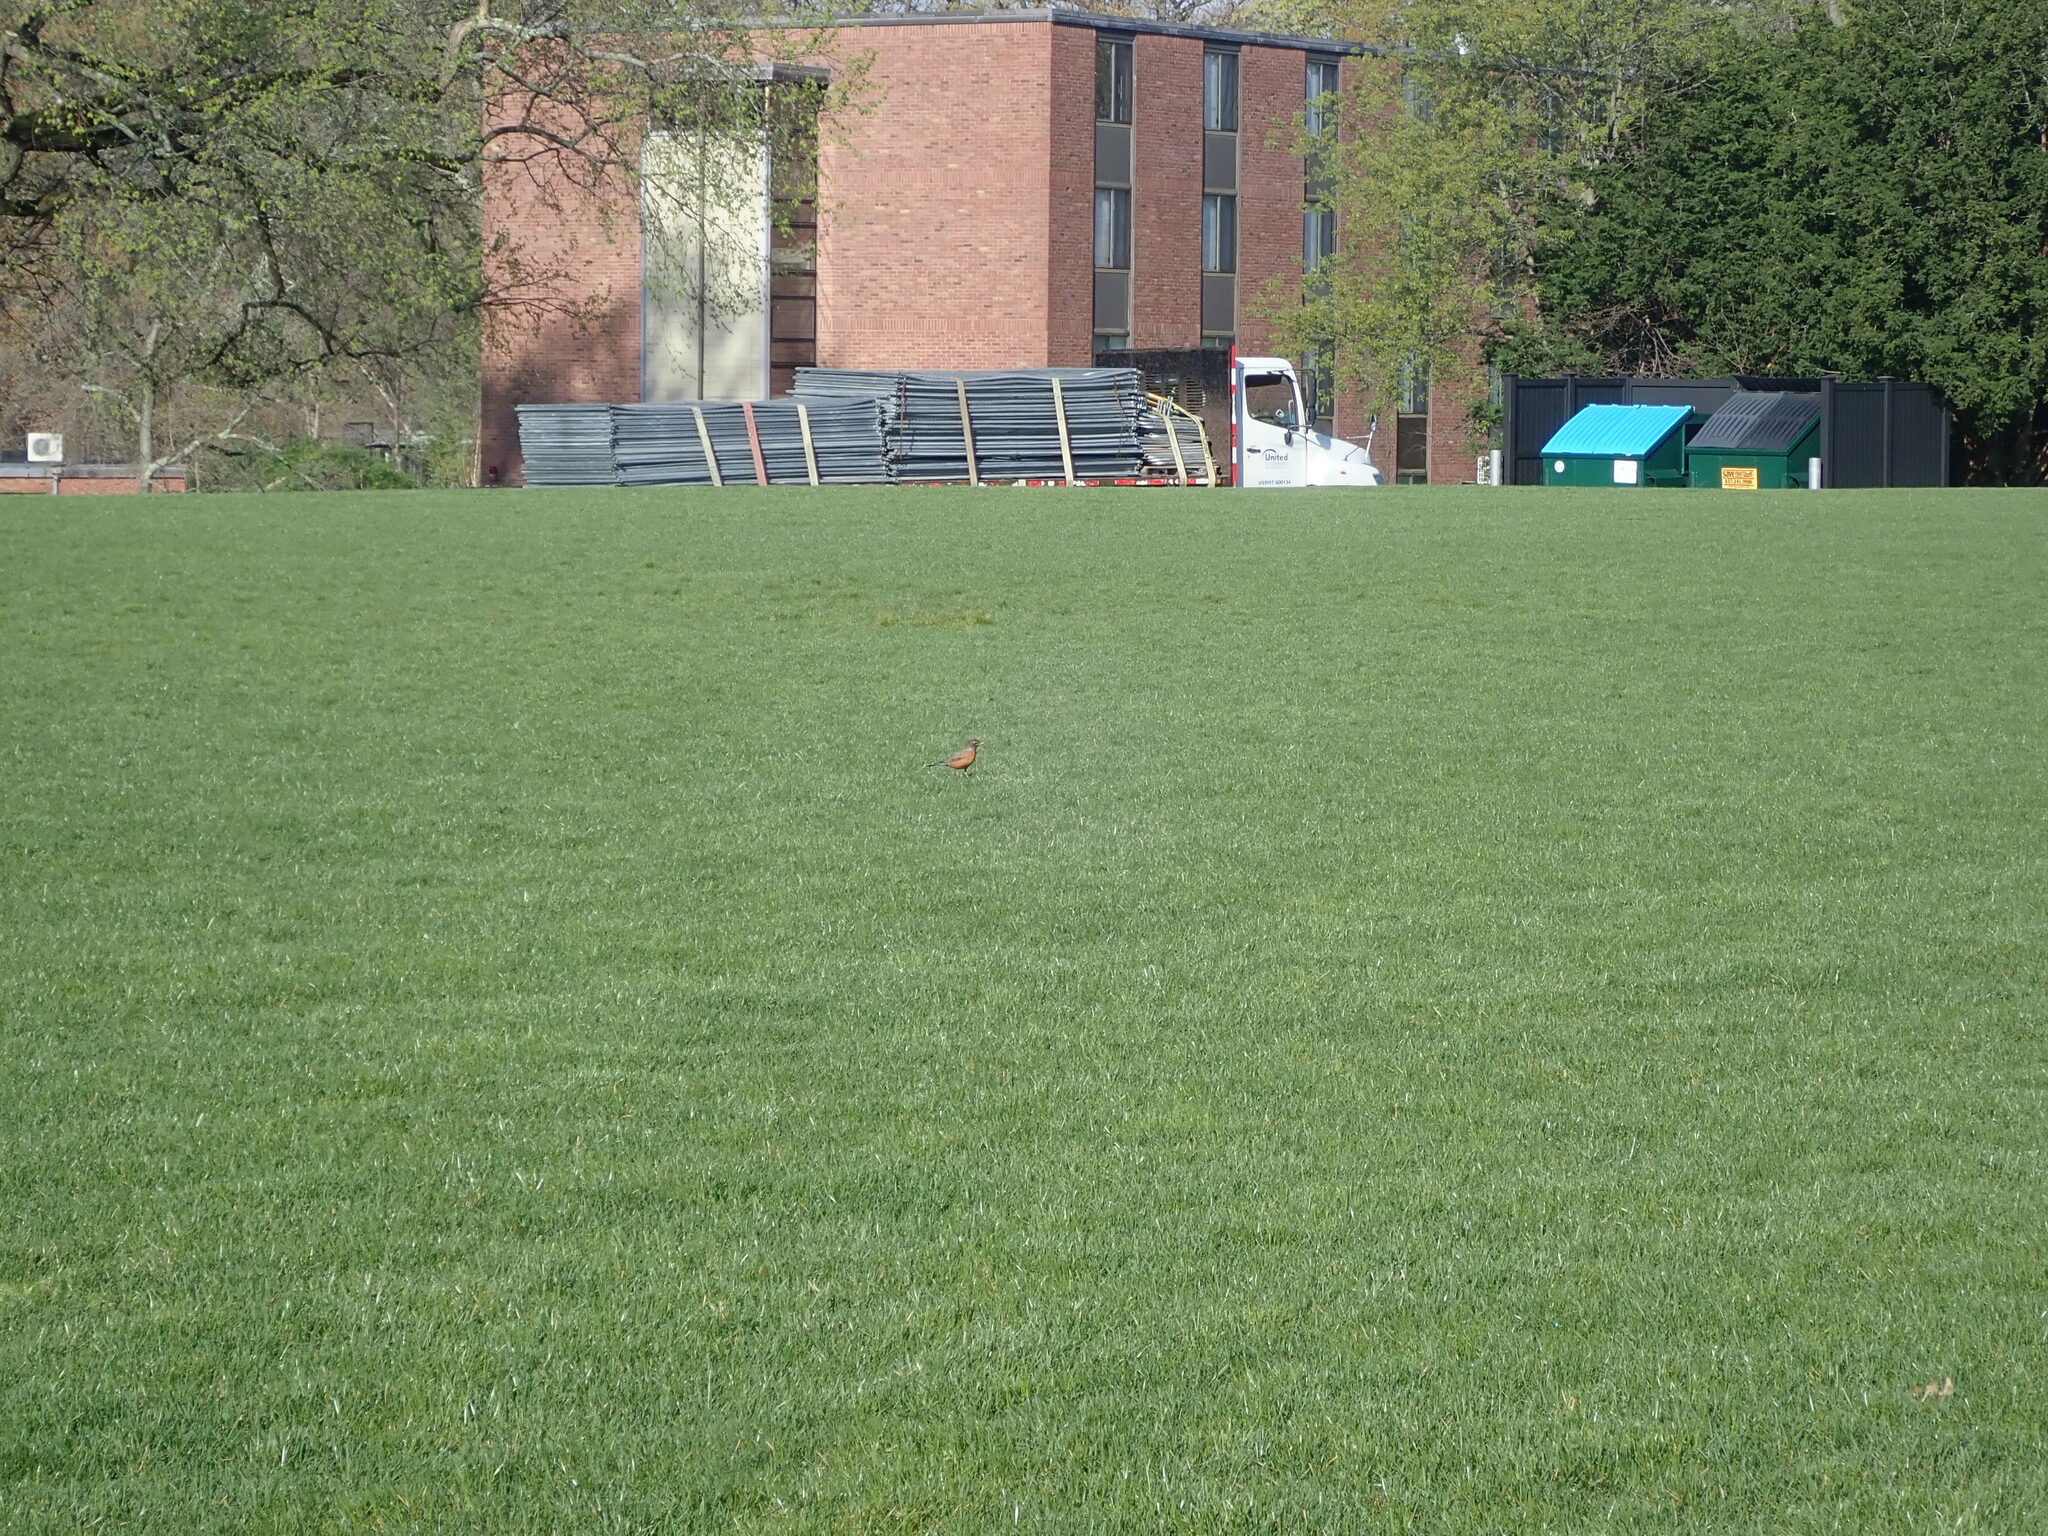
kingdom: Animalia
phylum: Chordata
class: Aves
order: Passeriformes
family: Turdidae
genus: Turdus
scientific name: Turdus migratorius
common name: American robin
